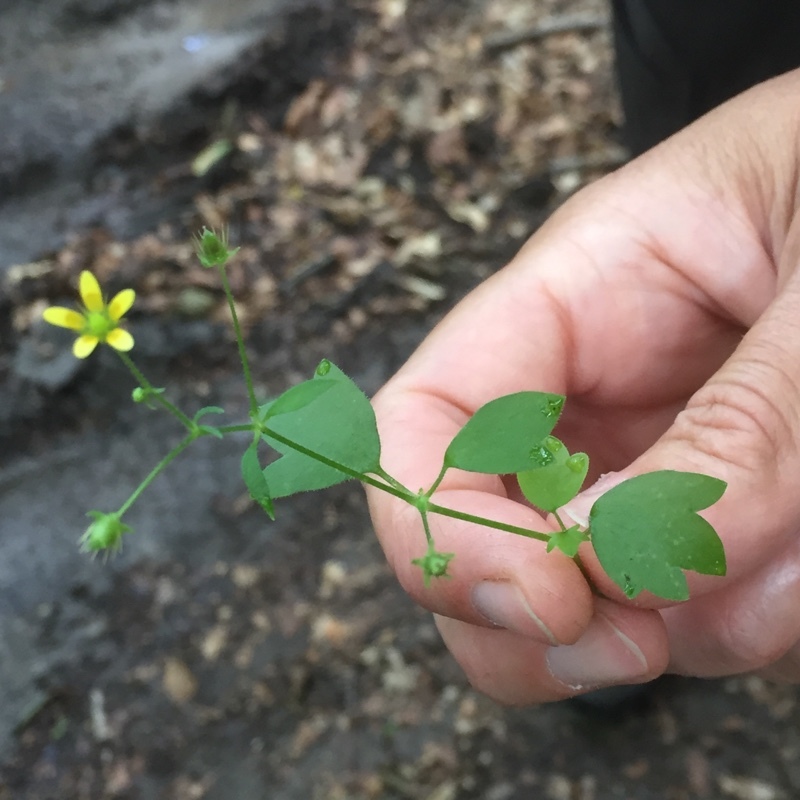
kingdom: Plantae
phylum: Tracheophyta
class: Magnoliopsida
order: Saxifragales
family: Saxifragaceae
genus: Saxifraga
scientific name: Saxifraga cymbalaria
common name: Celandine saxifrage
